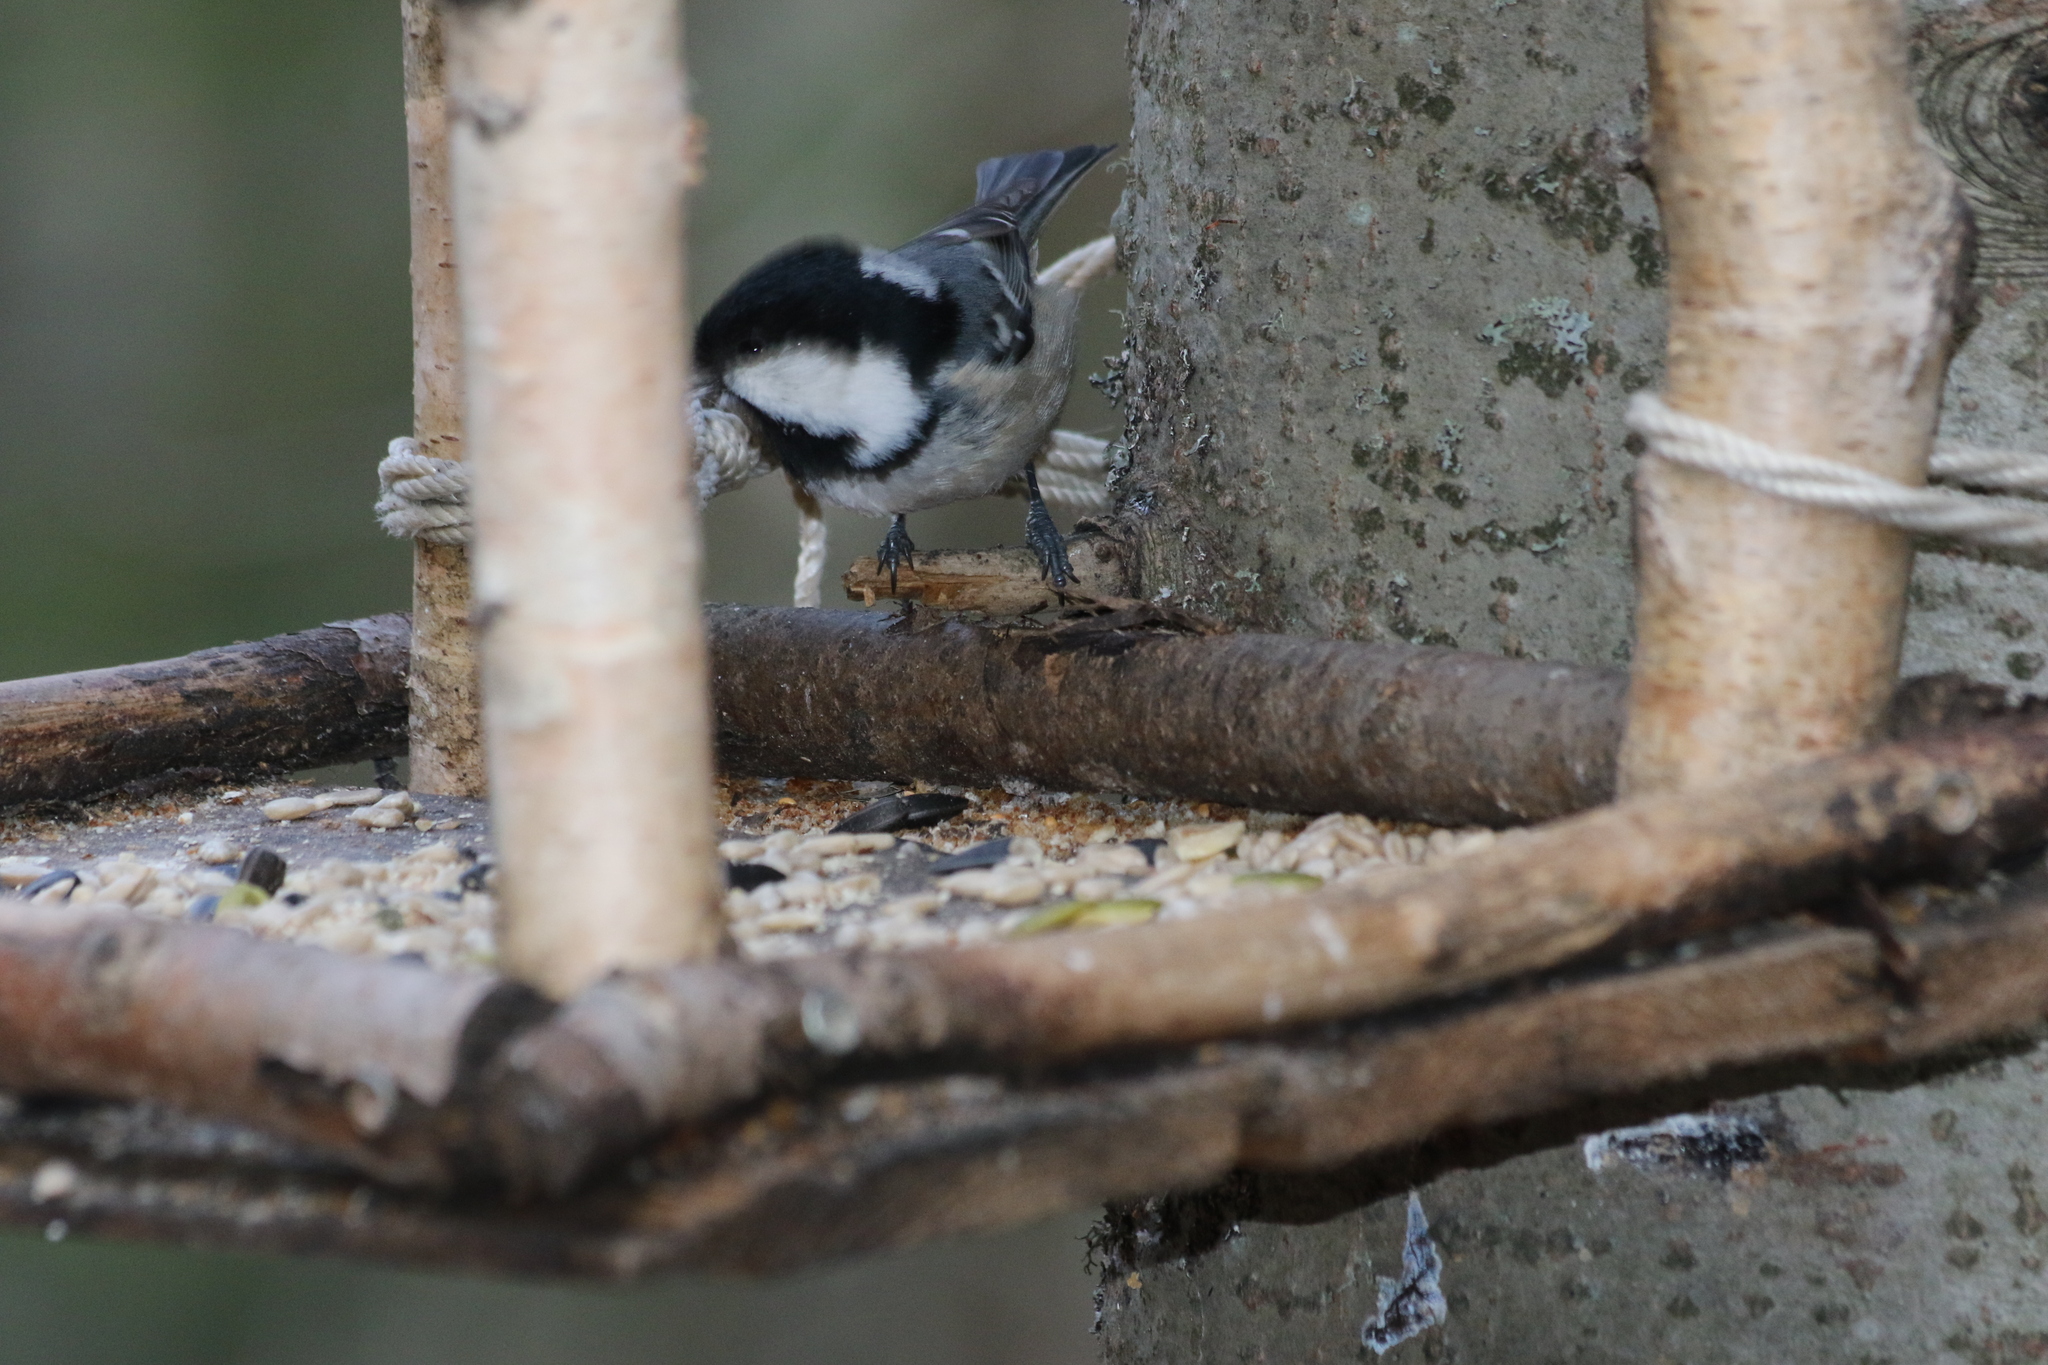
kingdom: Animalia
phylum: Chordata
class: Aves
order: Passeriformes
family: Paridae
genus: Periparus
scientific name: Periparus ater
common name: Coal tit
